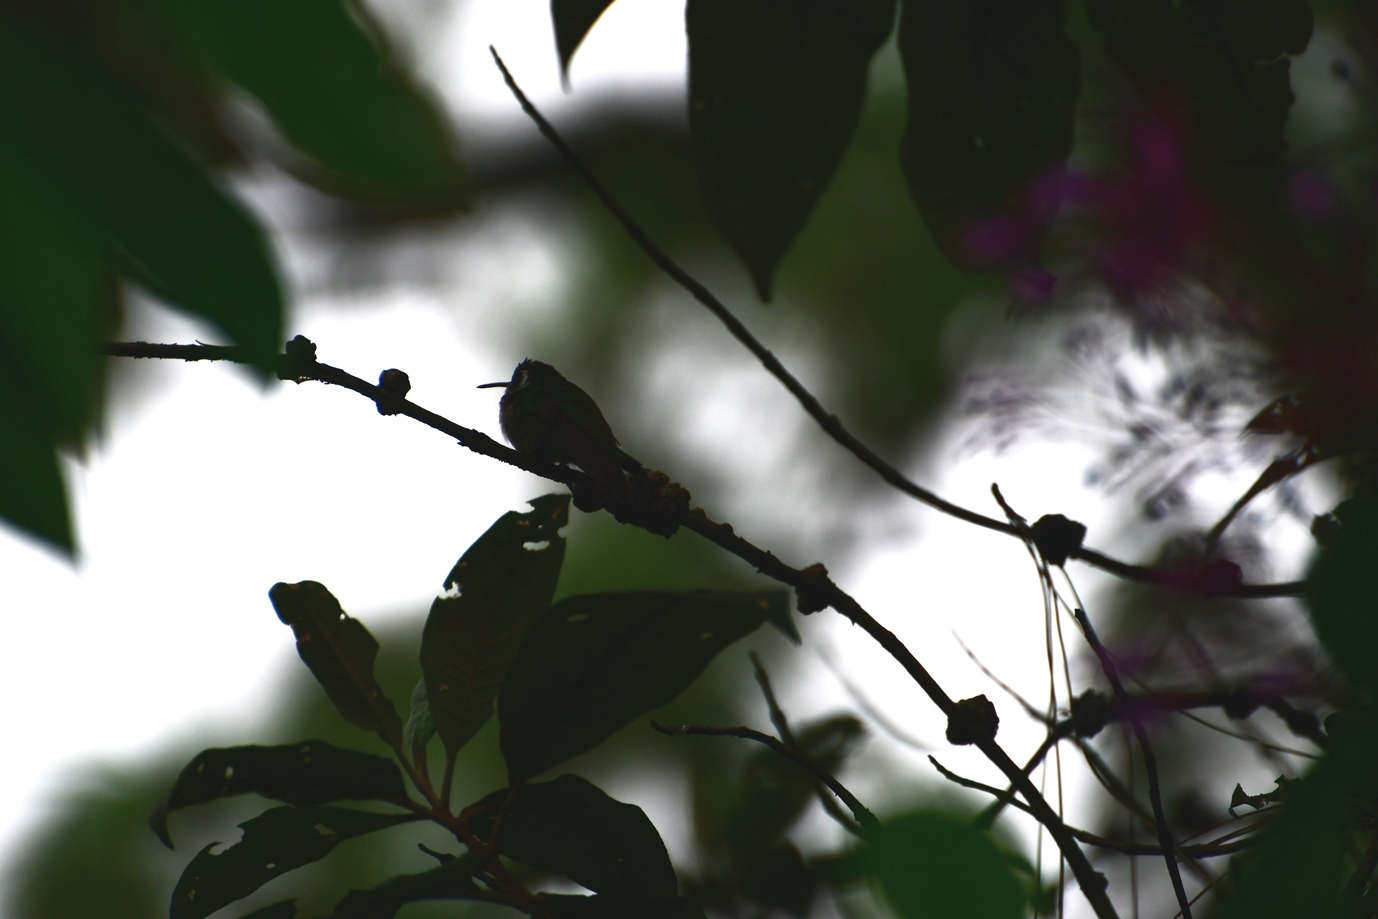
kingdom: Animalia
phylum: Chordata
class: Aves
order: Apodiformes
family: Trochilidae
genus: Basilinna
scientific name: Basilinna leucotis
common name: White-eared hummingbird
